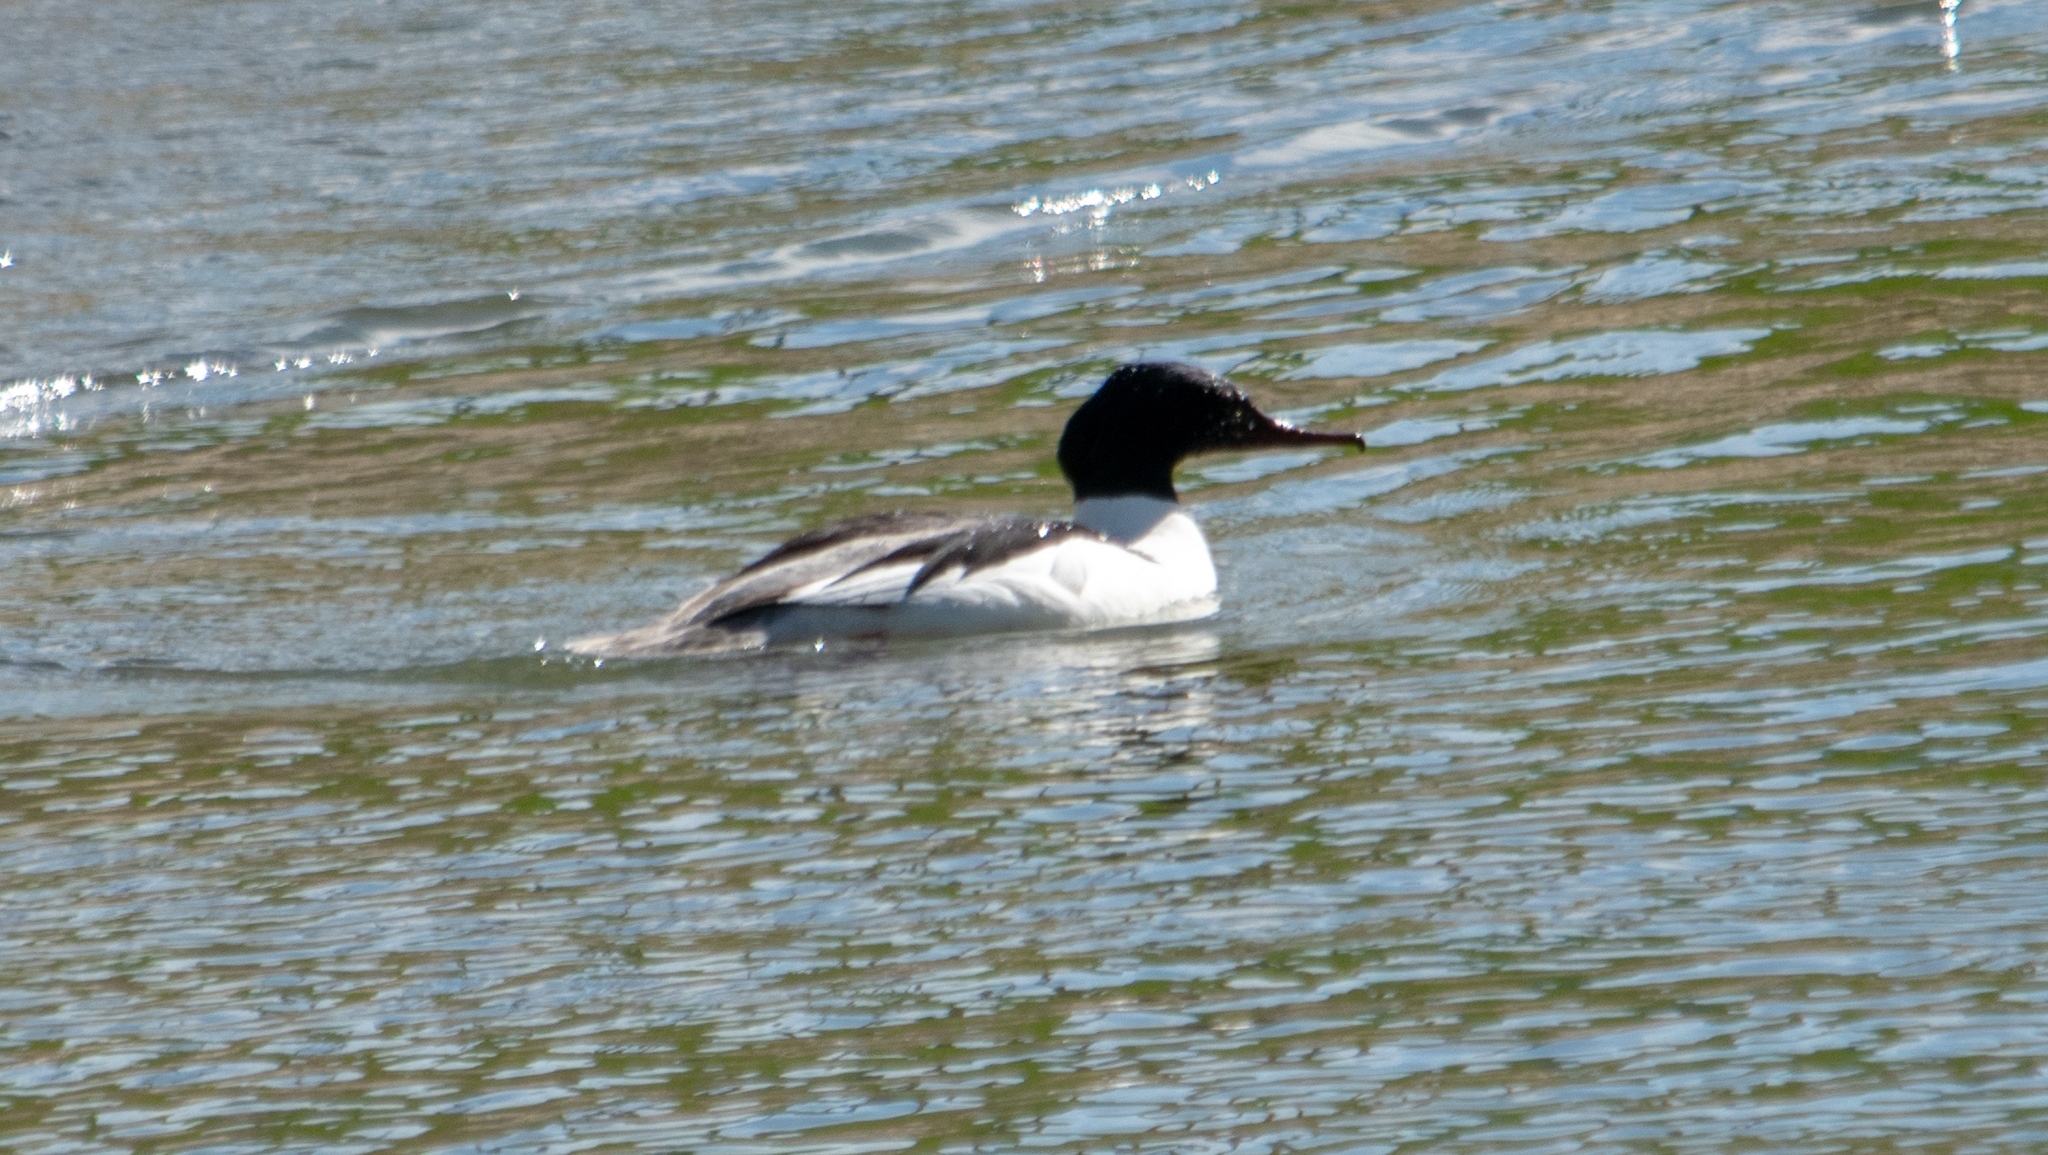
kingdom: Animalia
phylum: Chordata
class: Aves
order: Anseriformes
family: Anatidae
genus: Mergus
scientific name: Mergus merganser
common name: Common merganser
